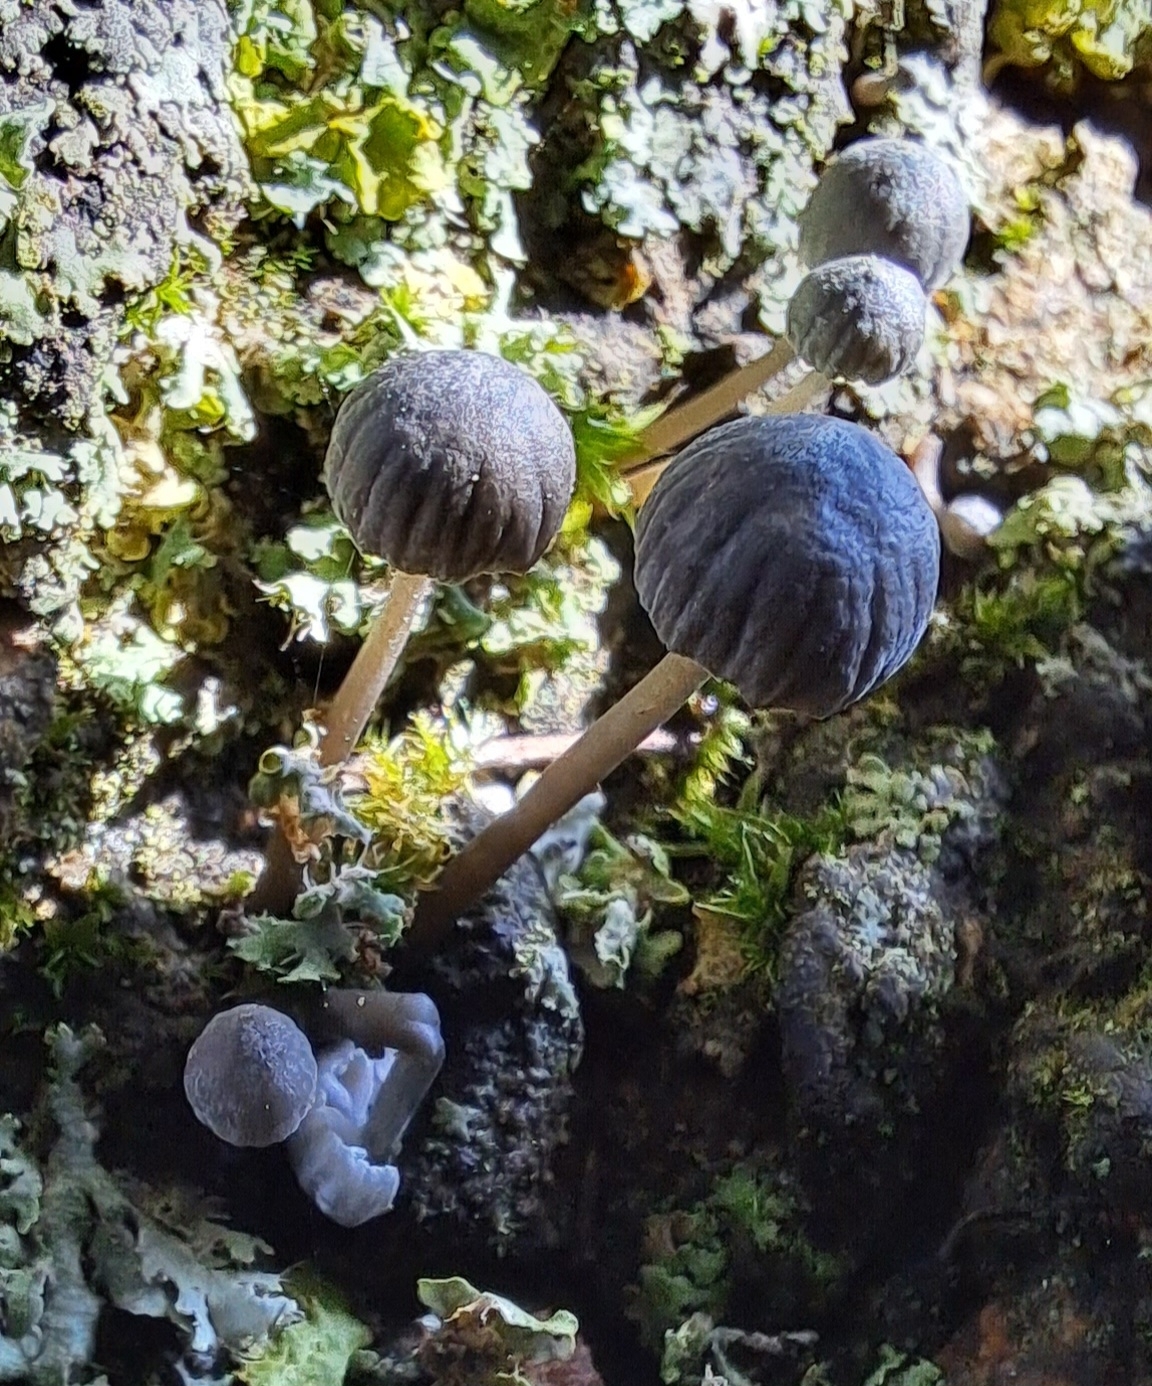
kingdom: Fungi
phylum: Basidiomycota
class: Agaricomycetes
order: Agaricales
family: Mycenaceae
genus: Mycena
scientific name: Mycena pseudocorticola
